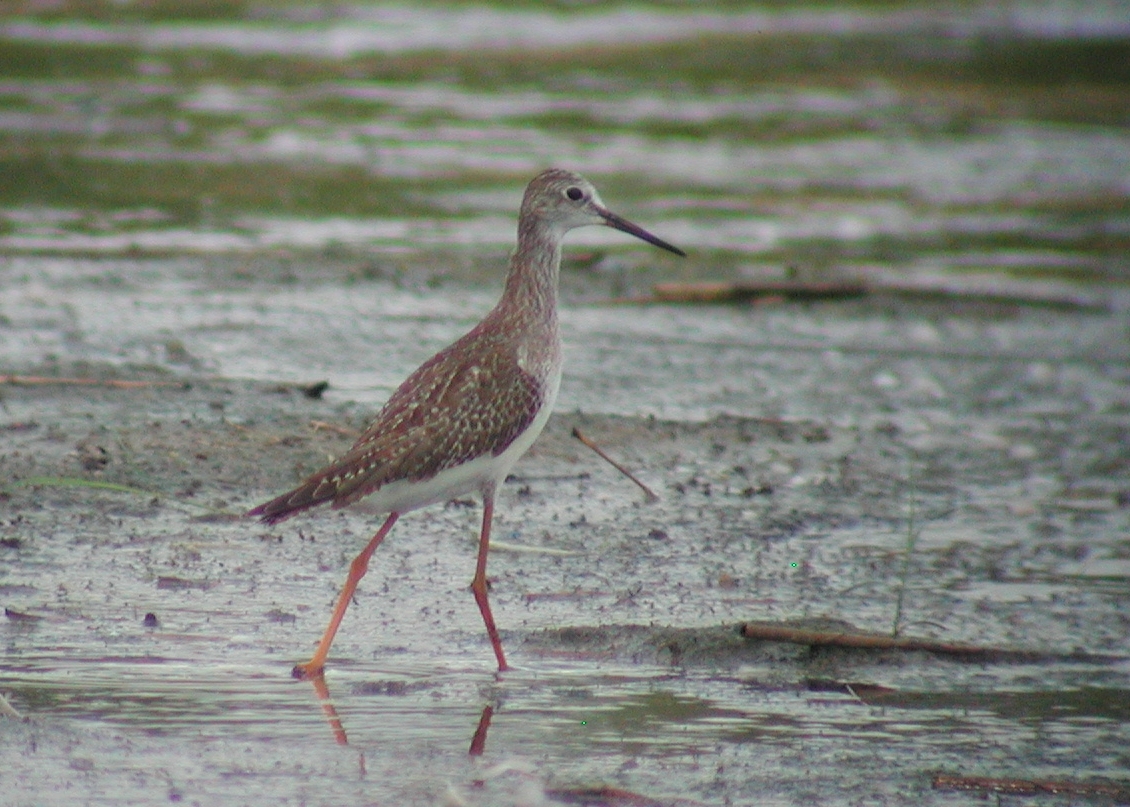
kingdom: Animalia
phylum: Chordata
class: Aves
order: Charadriiformes
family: Scolopacidae
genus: Tringa
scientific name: Tringa flavipes
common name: Lesser yellowlegs
